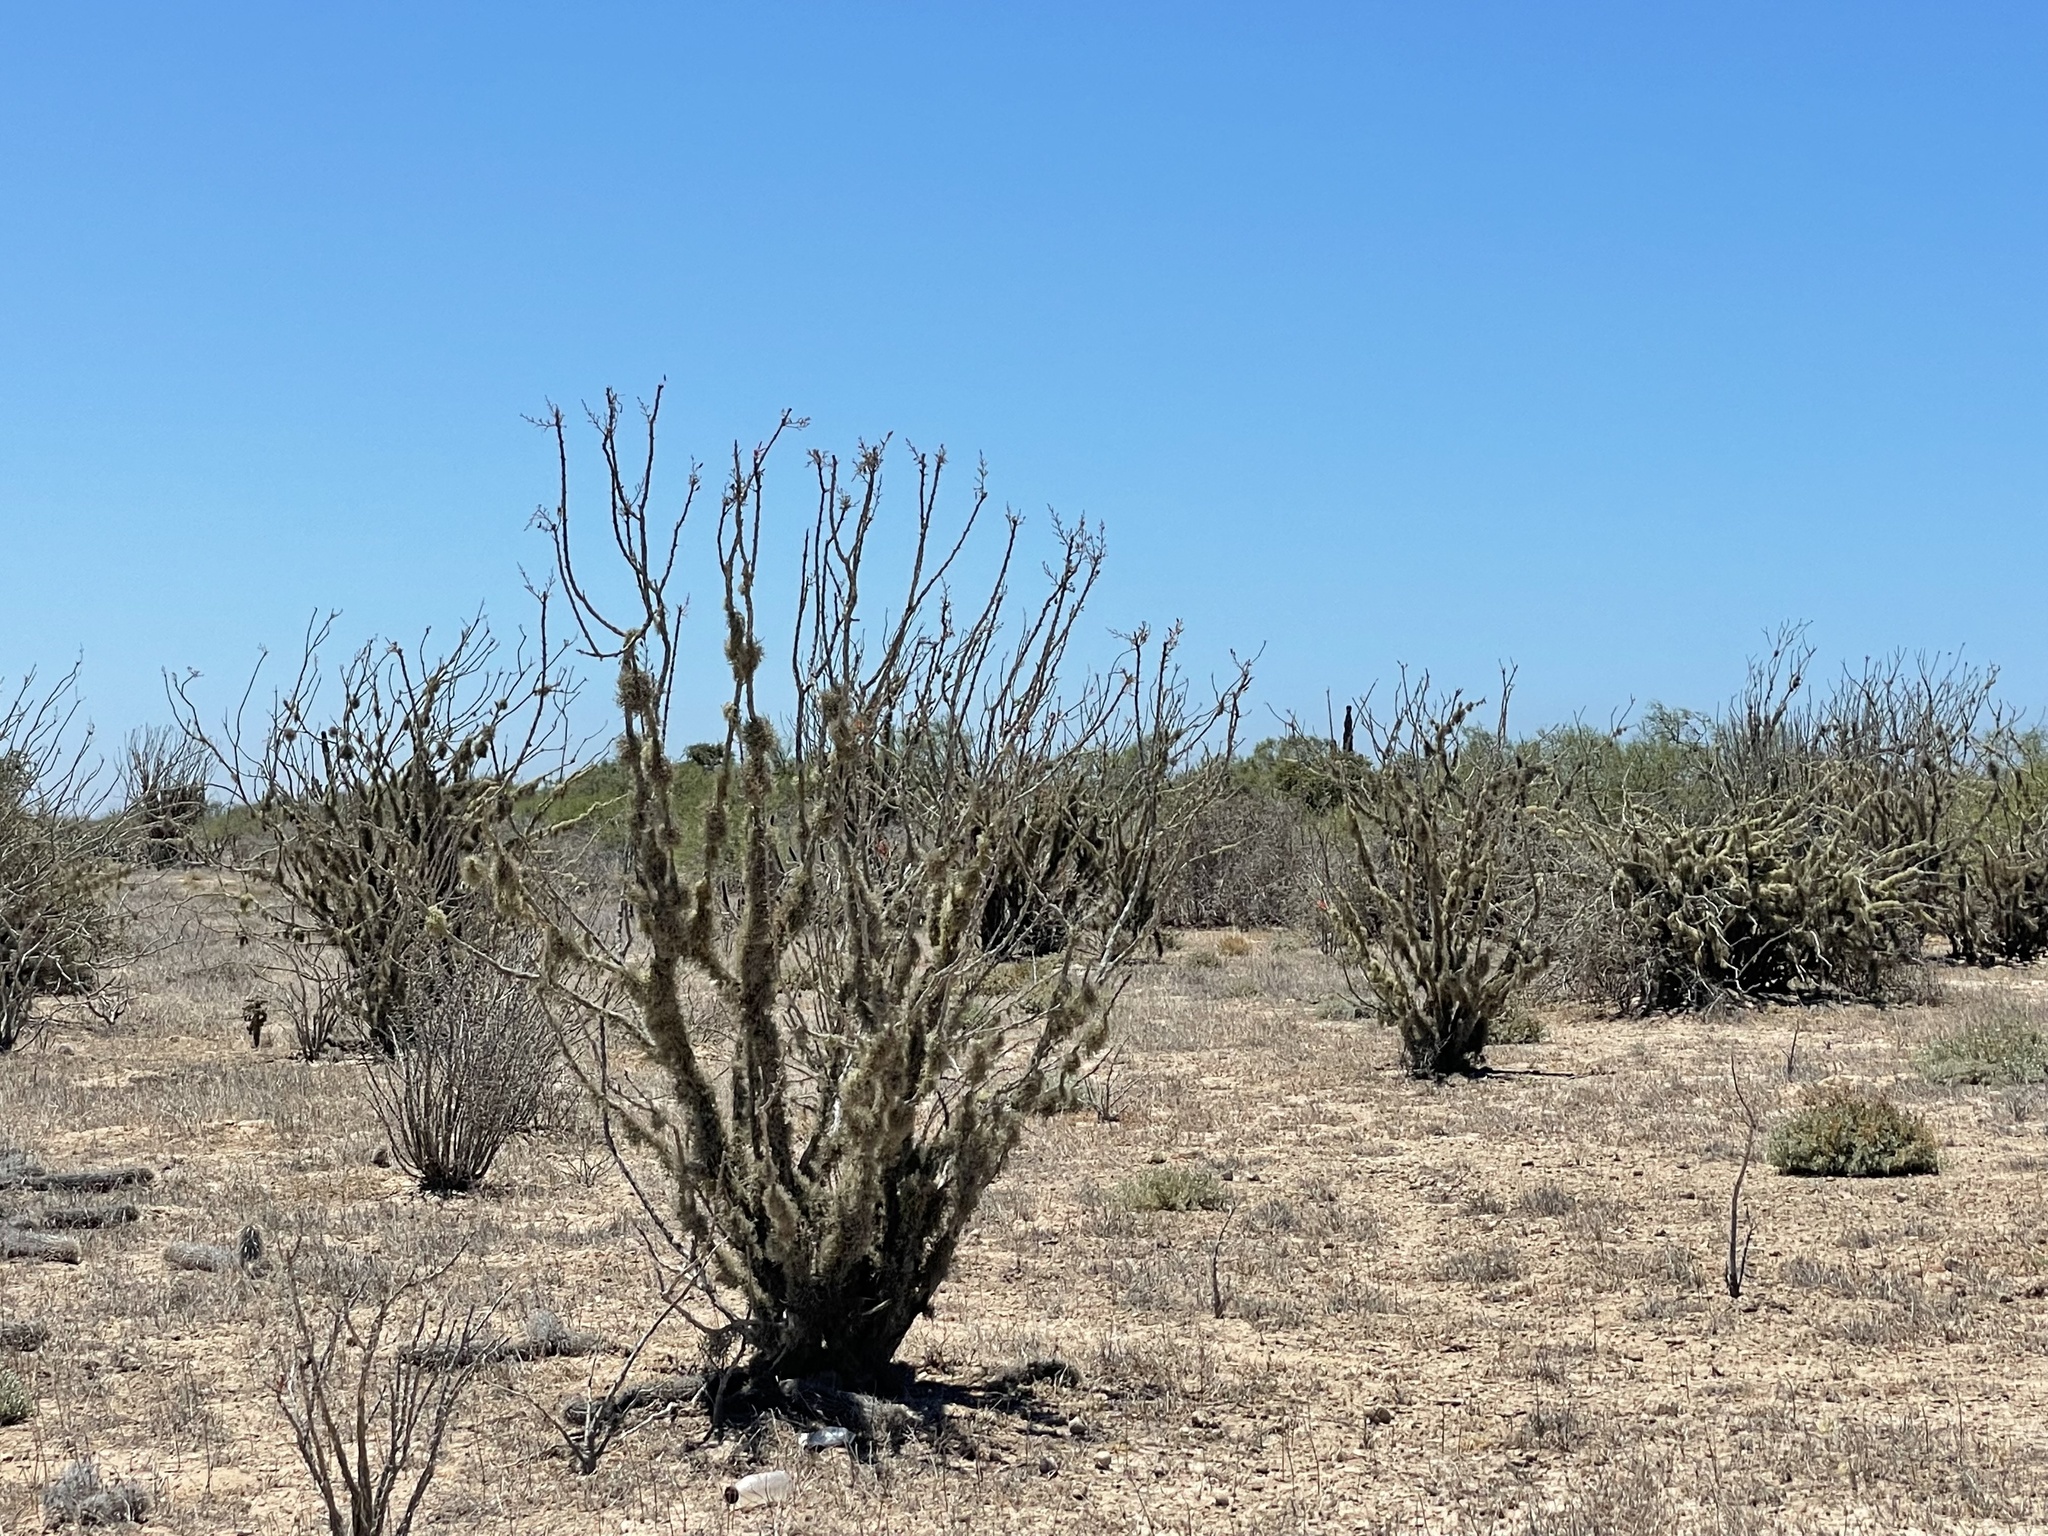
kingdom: Plantae
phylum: Tracheophyta
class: Magnoliopsida
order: Ericales
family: Fouquieriaceae
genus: Fouquieria
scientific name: Fouquieria diguetii
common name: Adam's tree
